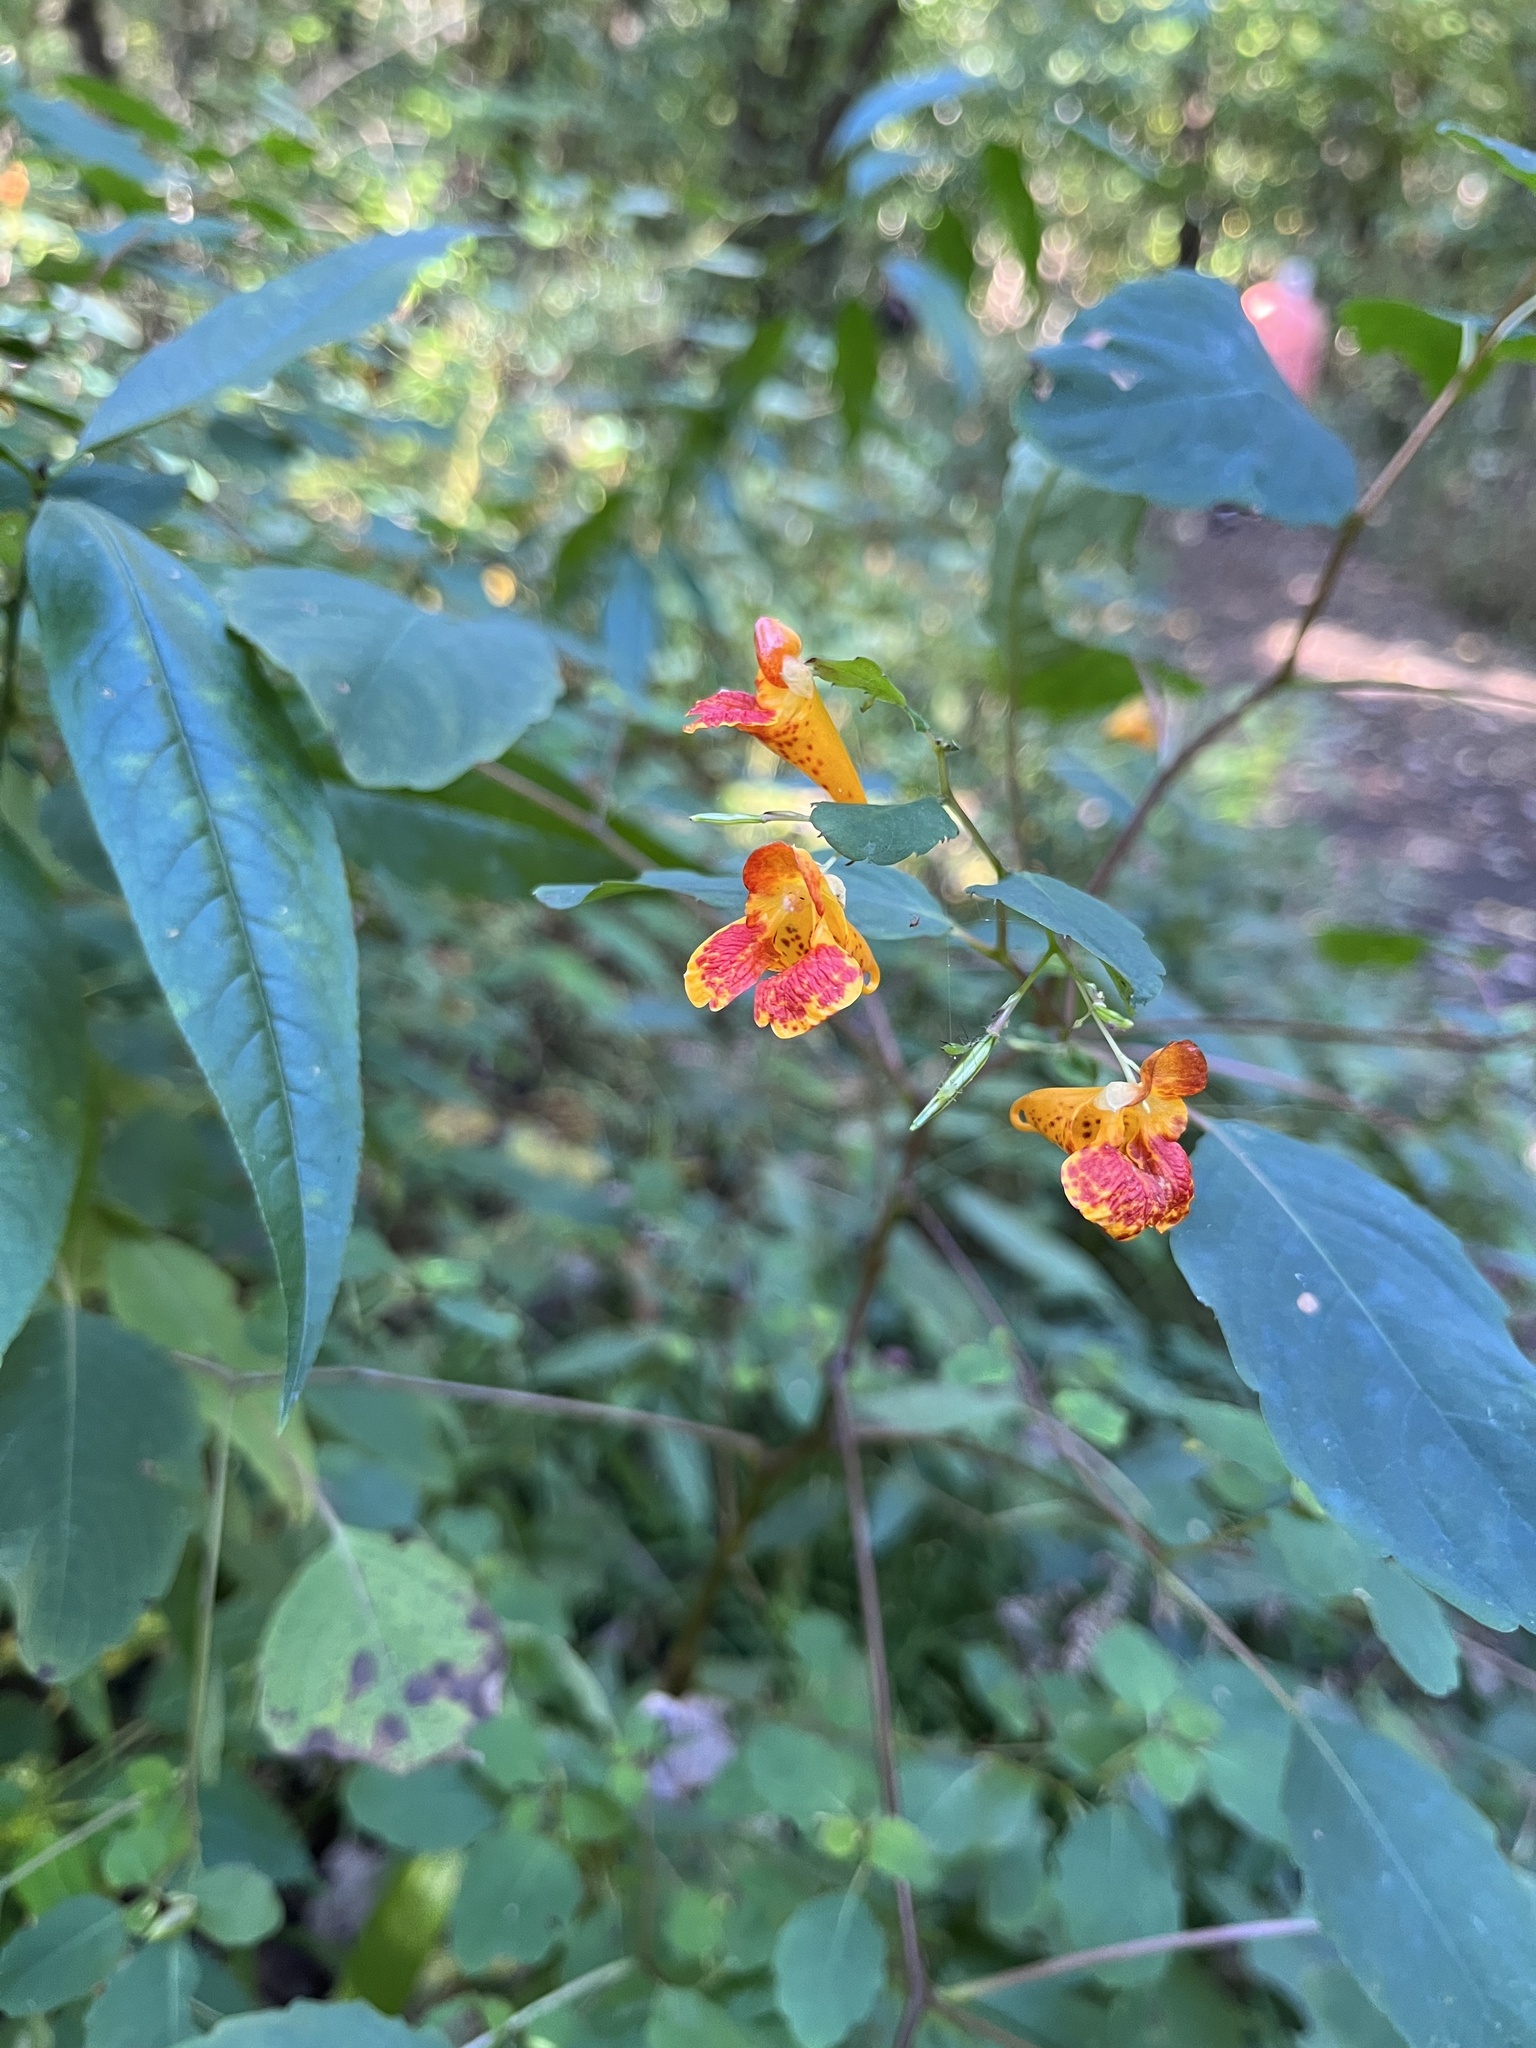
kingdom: Plantae
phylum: Tracheophyta
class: Magnoliopsida
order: Ericales
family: Balsaminaceae
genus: Impatiens
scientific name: Impatiens capensis
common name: Orange balsam
